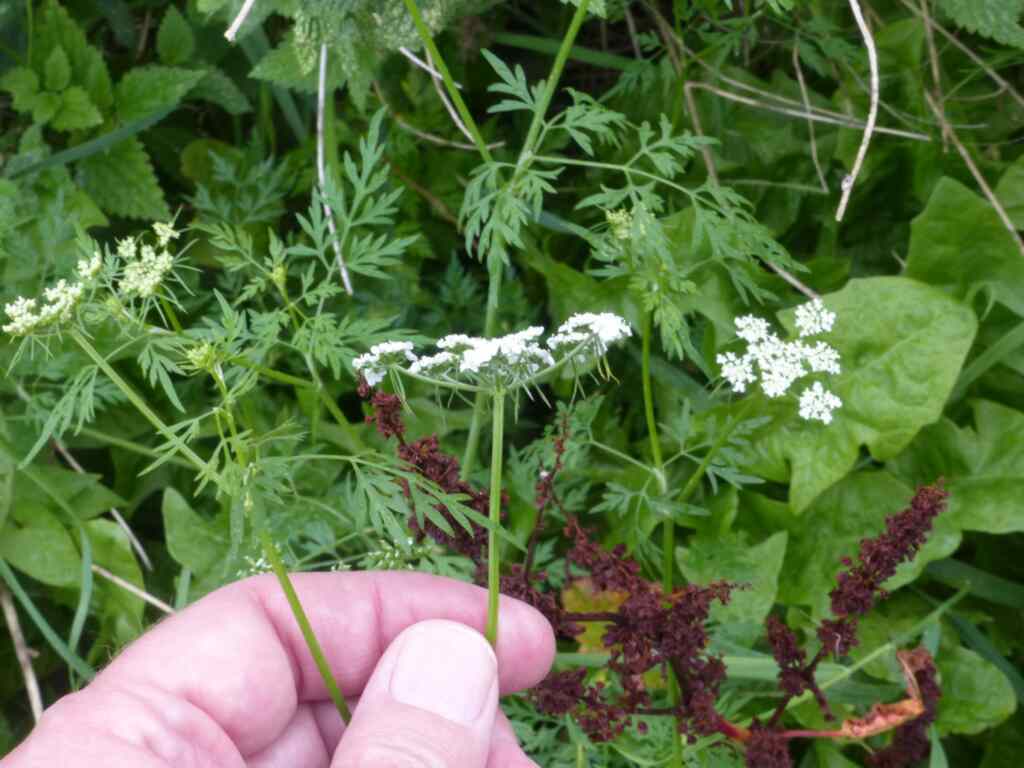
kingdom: Plantae
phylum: Tracheophyta
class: Magnoliopsida
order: Apiales
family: Apiaceae
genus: Aethusa
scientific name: Aethusa cynapium
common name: Fool's parsley
